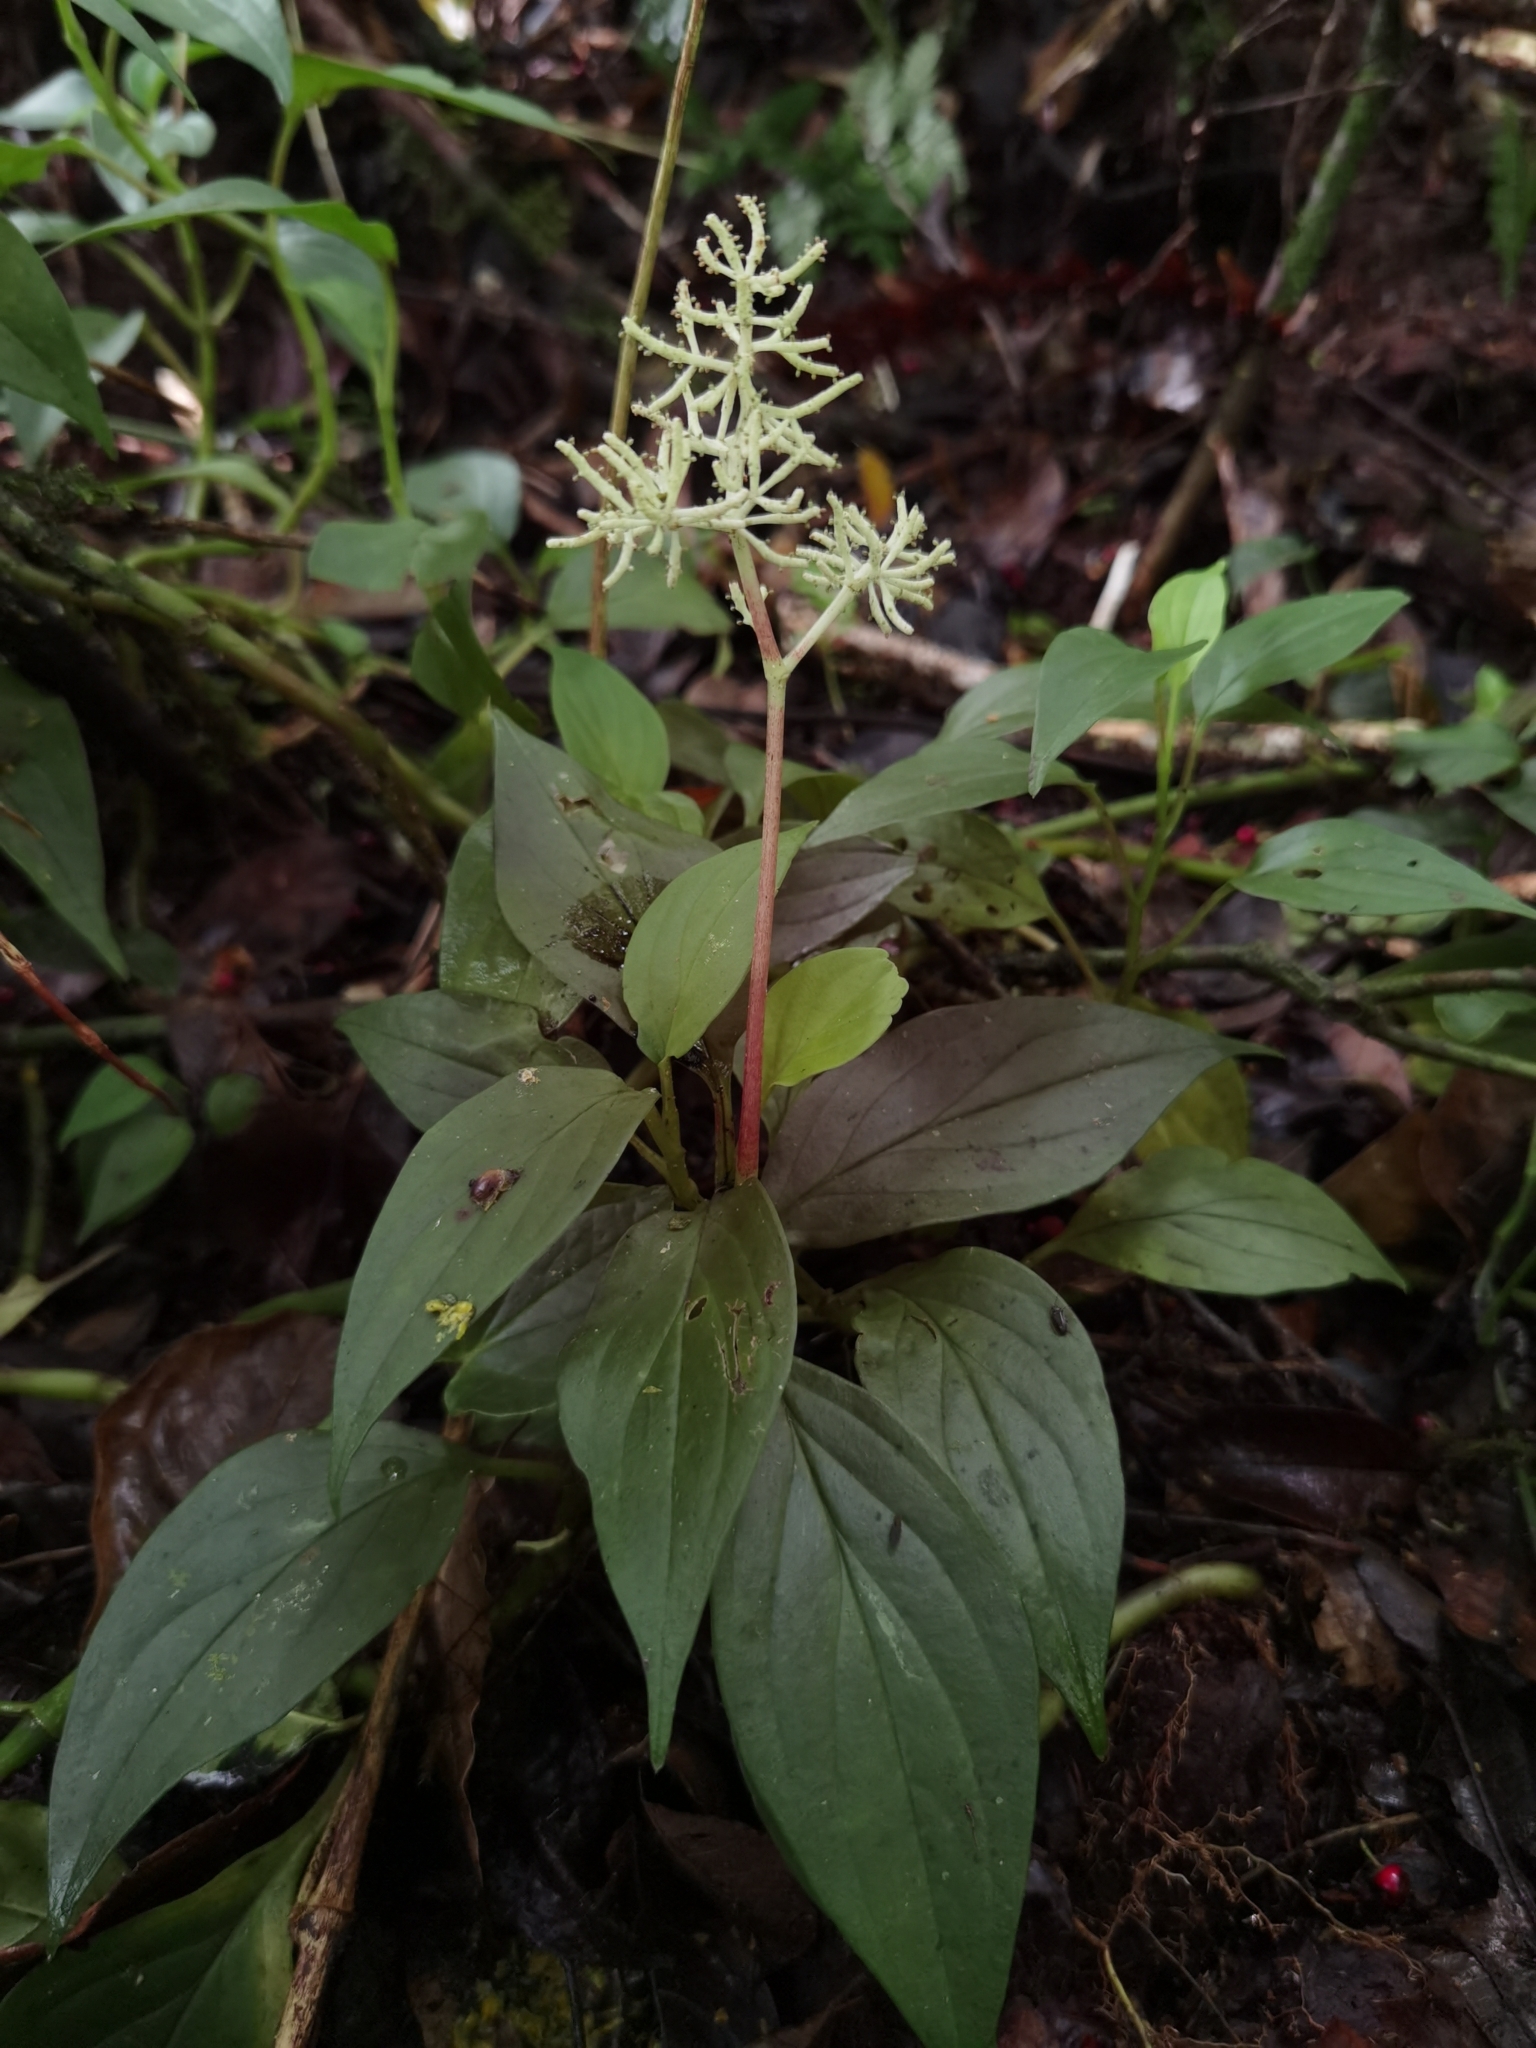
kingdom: Plantae
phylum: Tracheophyta
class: Magnoliopsida
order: Piperales
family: Piperaceae
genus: Peperomia
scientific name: Peperomia poasana
